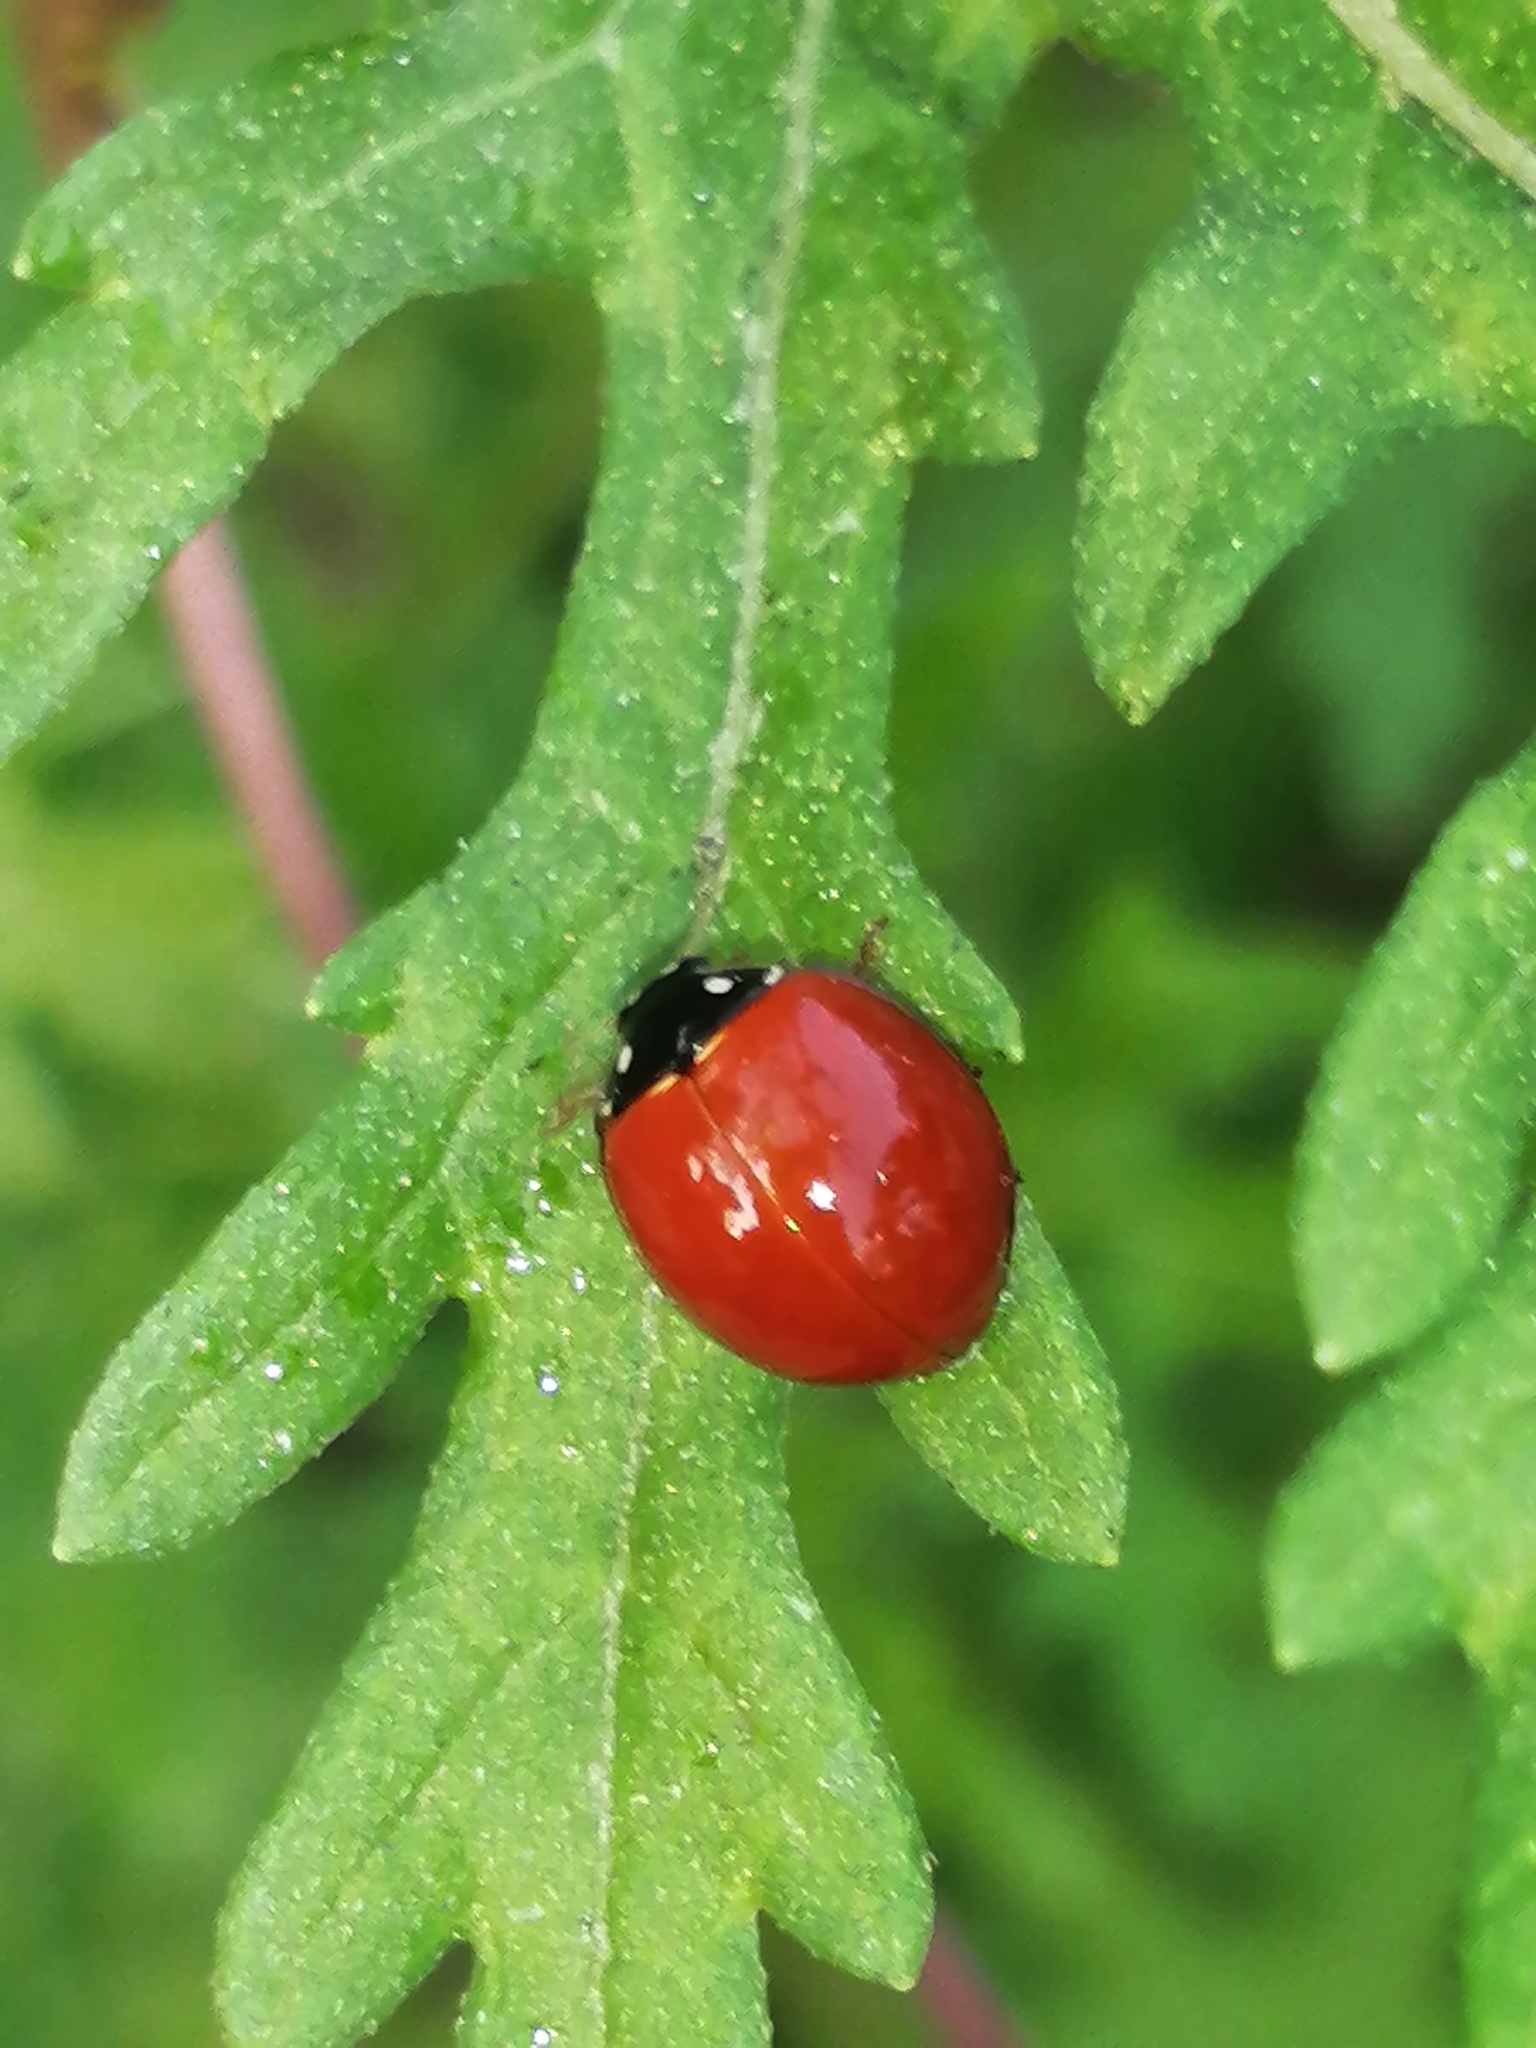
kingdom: Animalia
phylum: Arthropoda
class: Insecta
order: Coleoptera
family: Coccinellidae
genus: Cycloneda
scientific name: Cycloneda sanguinea
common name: Ladybird beetle
